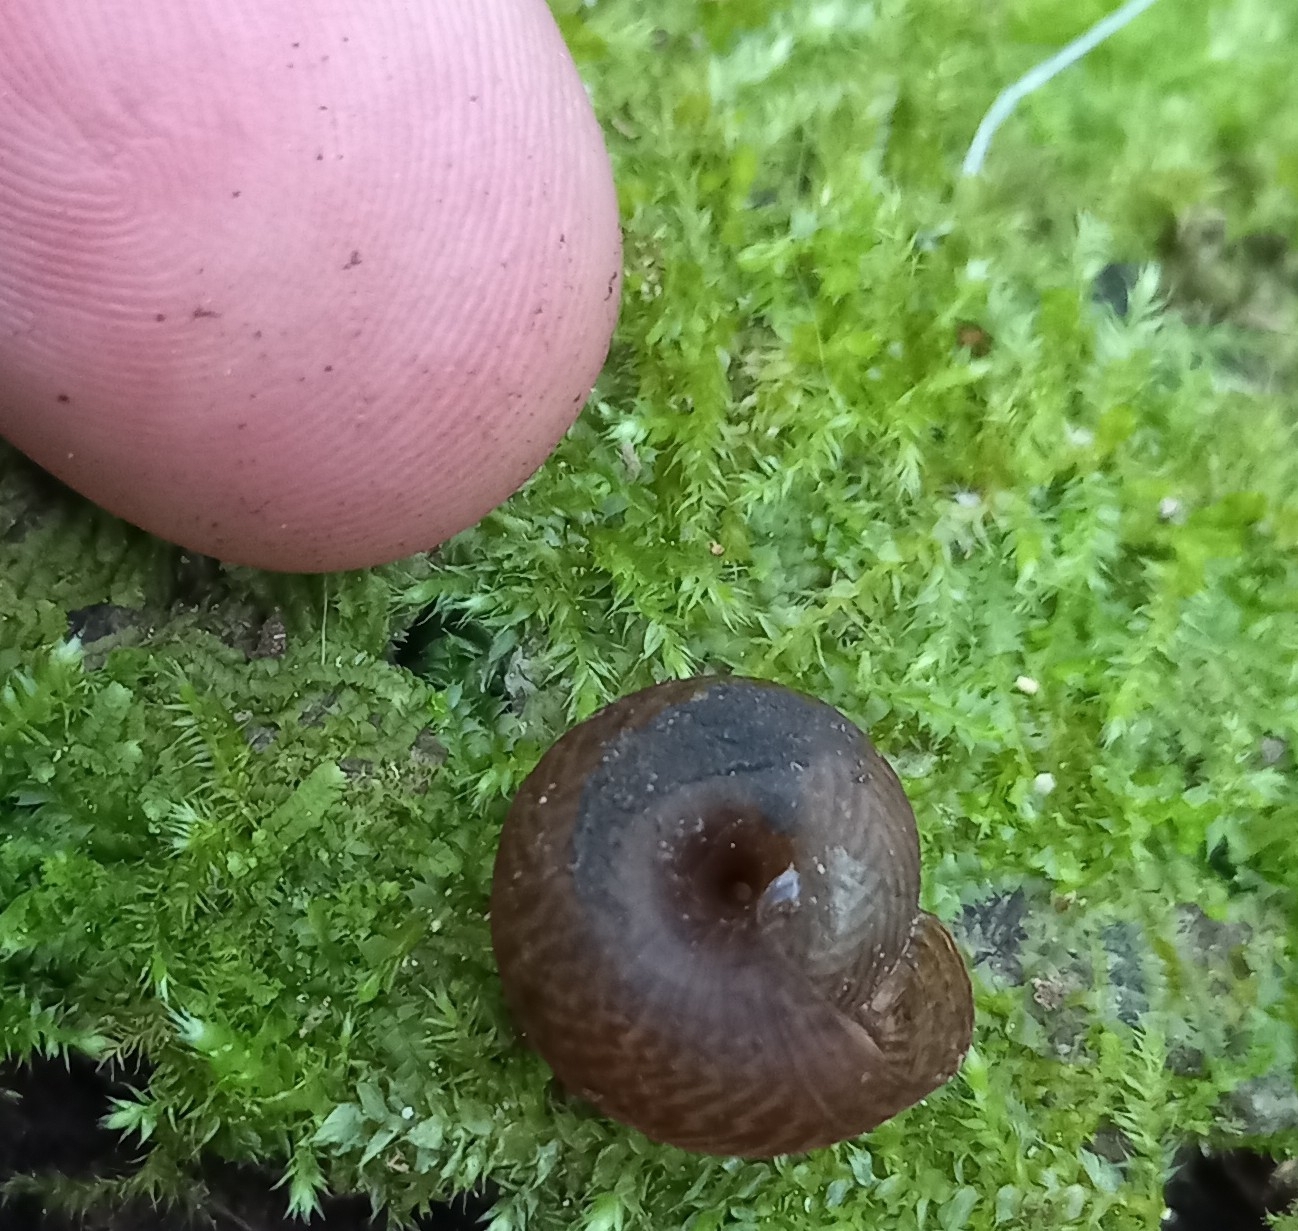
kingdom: Animalia
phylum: Mollusca
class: Gastropoda
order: Stylommatophora
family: Charopidae
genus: Thalassohelix
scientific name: Thalassohelix igniflua
